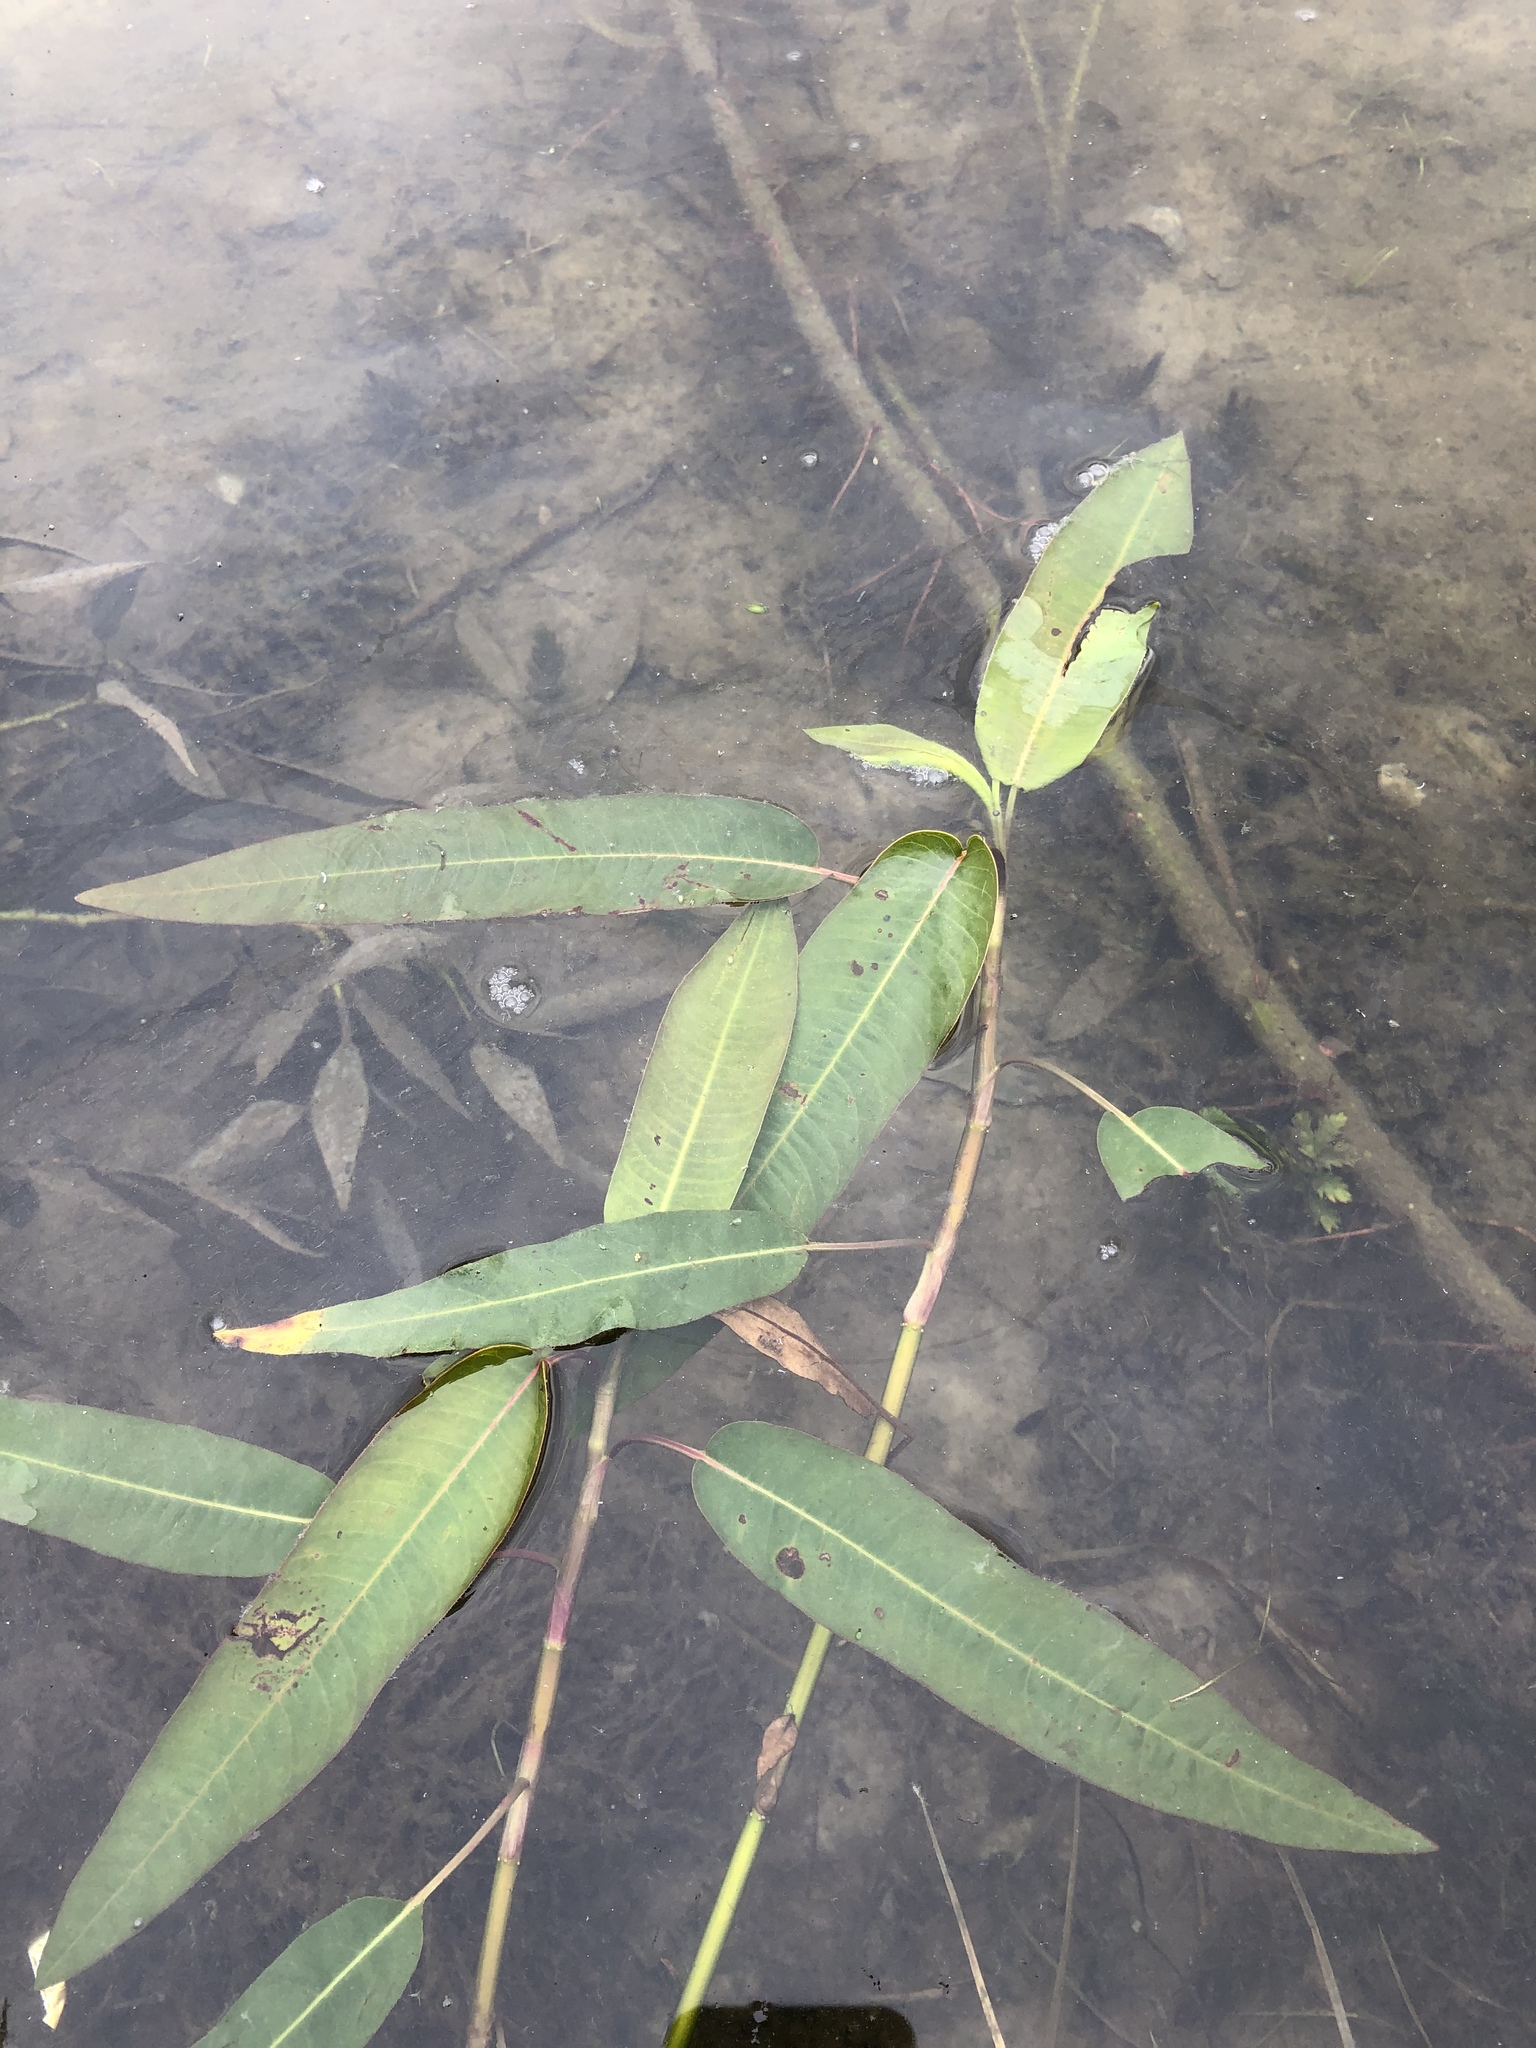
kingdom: Plantae
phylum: Tracheophyta
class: Magnoliopsida
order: Caryophyllales
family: Polygonaceae
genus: Persicaria
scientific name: Persicaria amphibia
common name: Amphibious bistort
